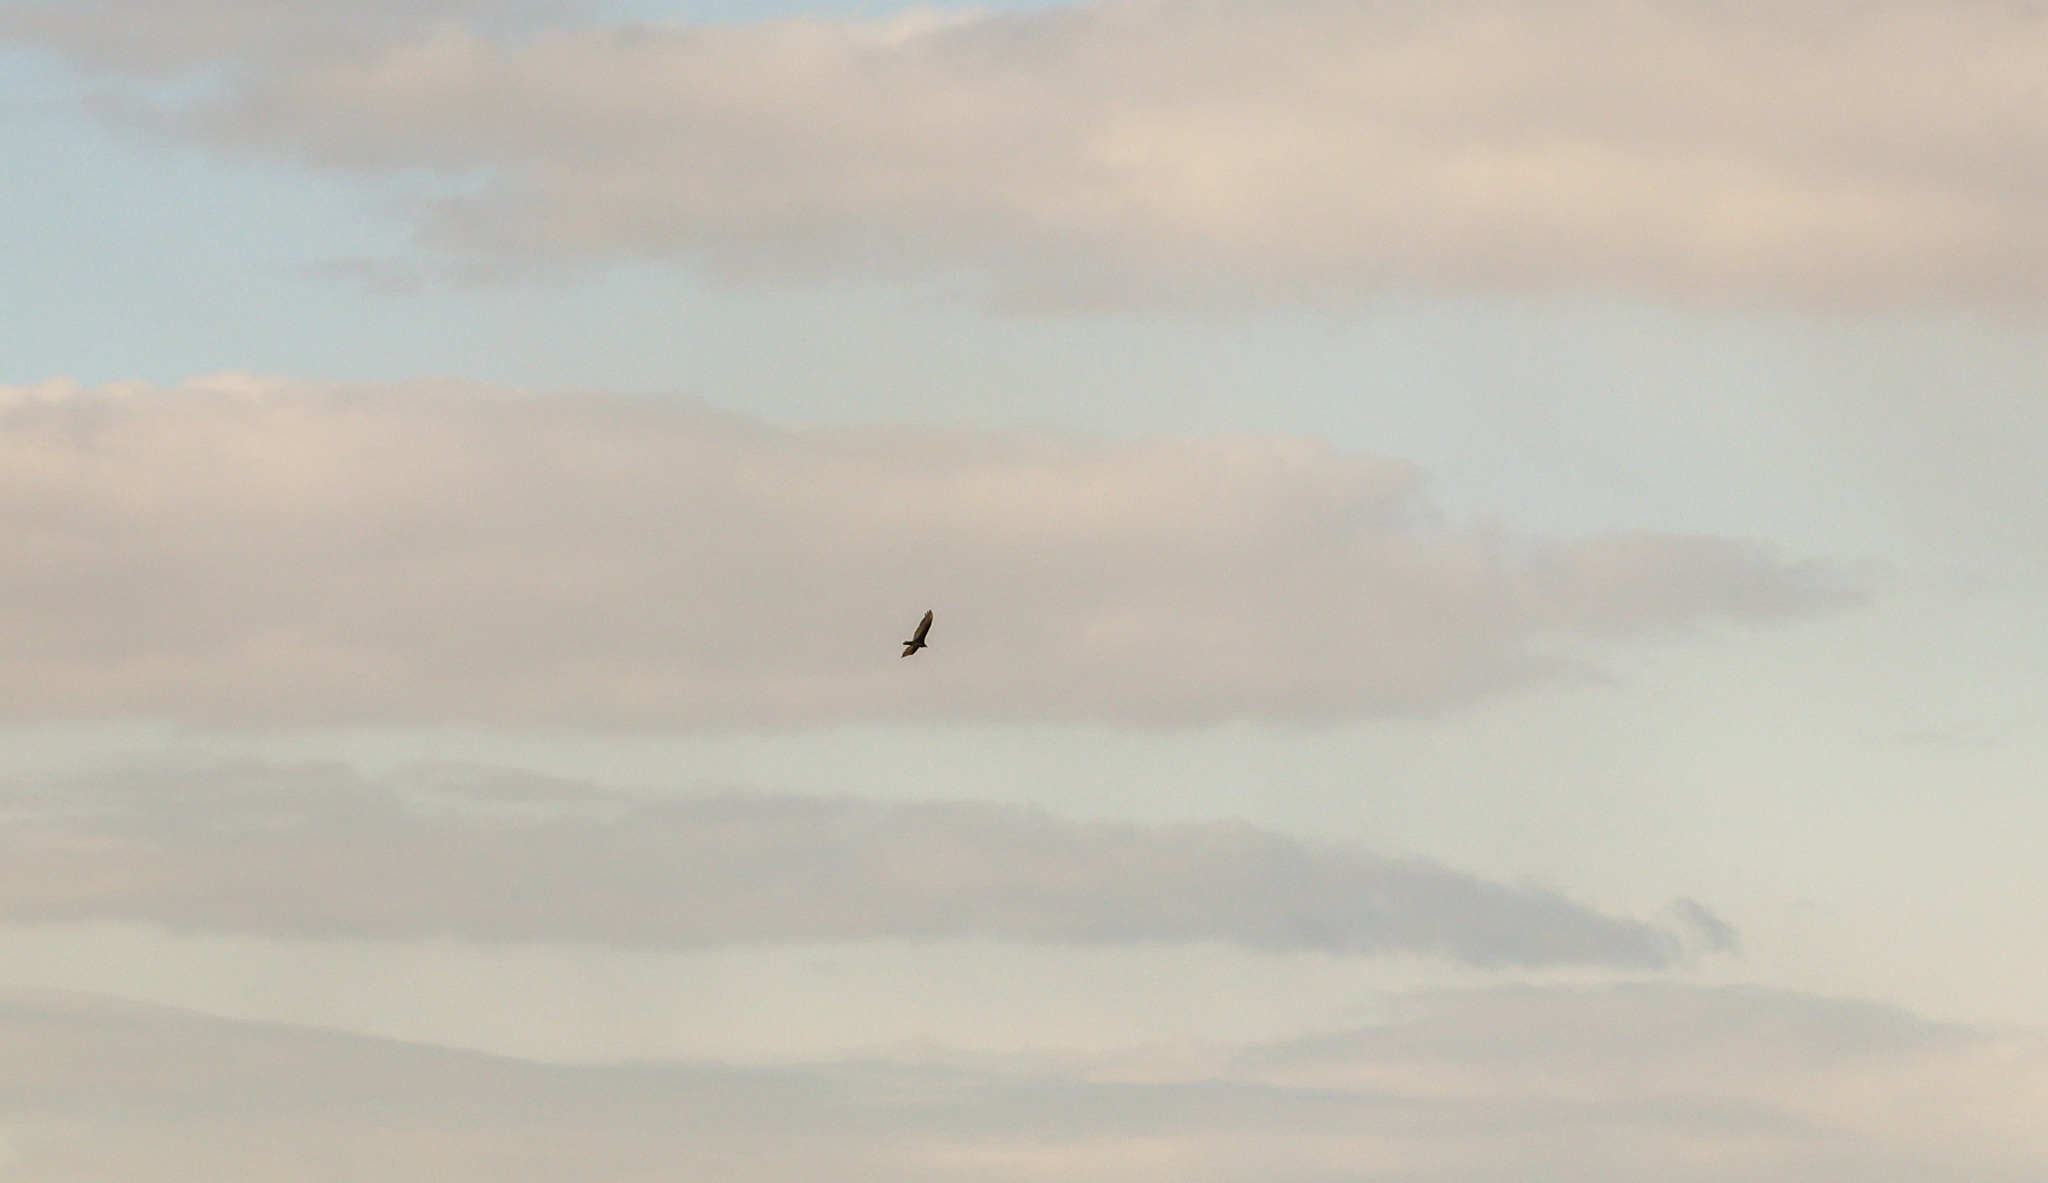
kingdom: Animalia
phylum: Chordata
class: Aves
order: Accipitriformes
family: Cathartidae
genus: Cathartes
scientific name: Cathartes aura
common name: Turkey vulture
